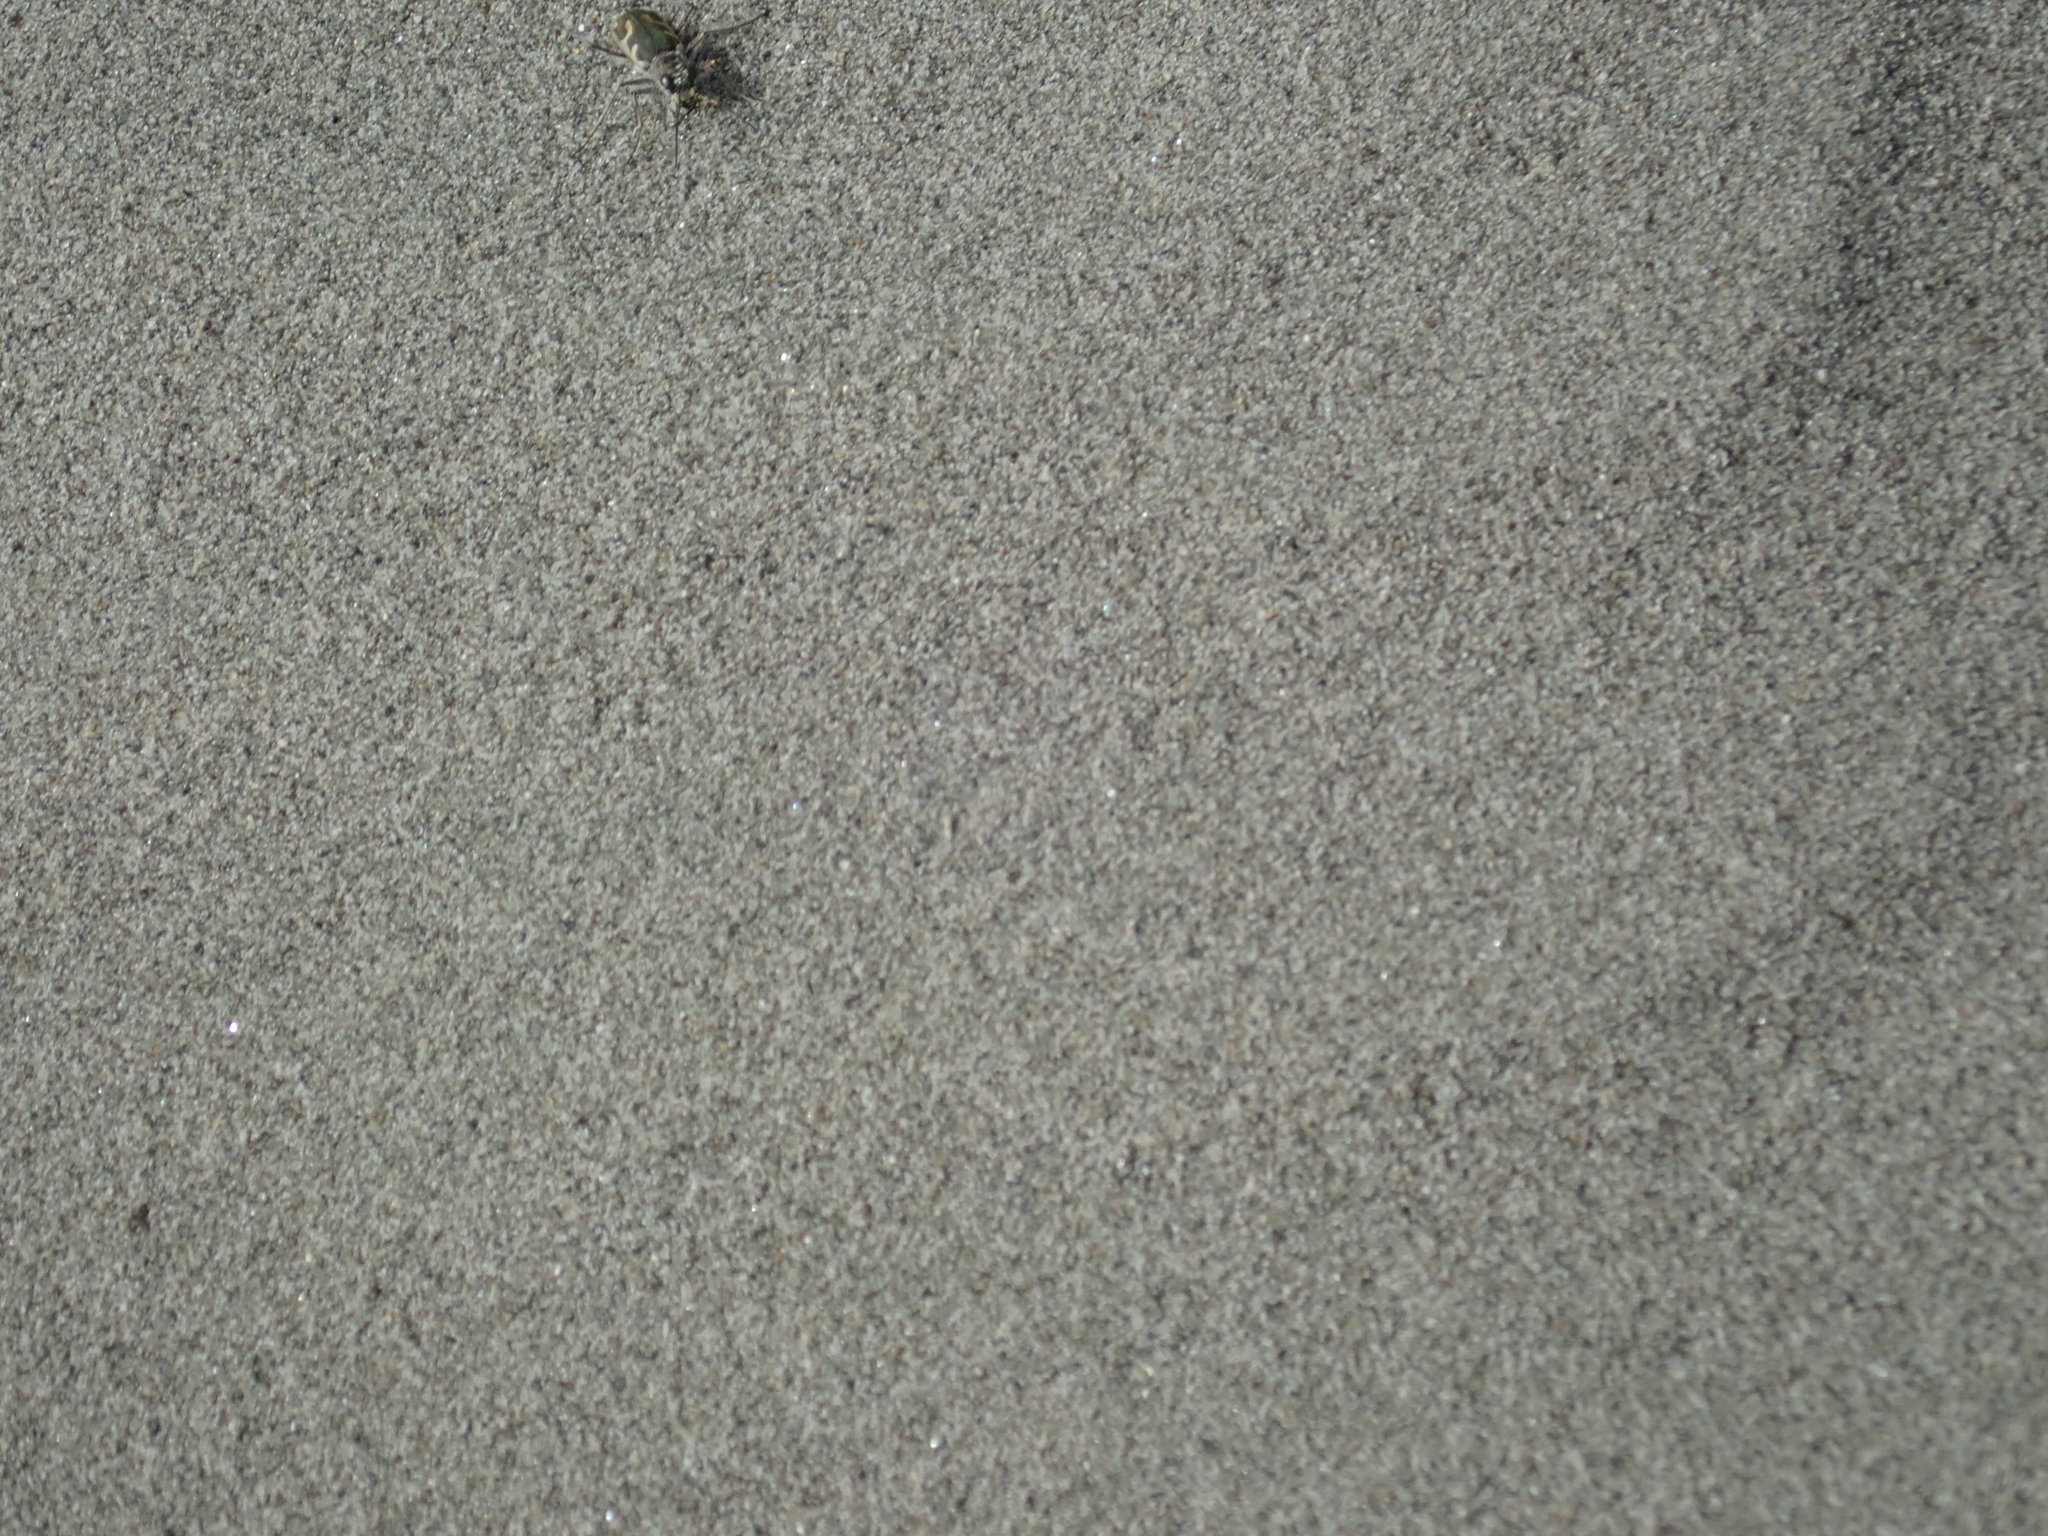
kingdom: Animalia
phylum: Arthropoda
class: Insecta
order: Coleoptera
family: Carabidae
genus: Zecicindela
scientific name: Zecicindela feredayi
